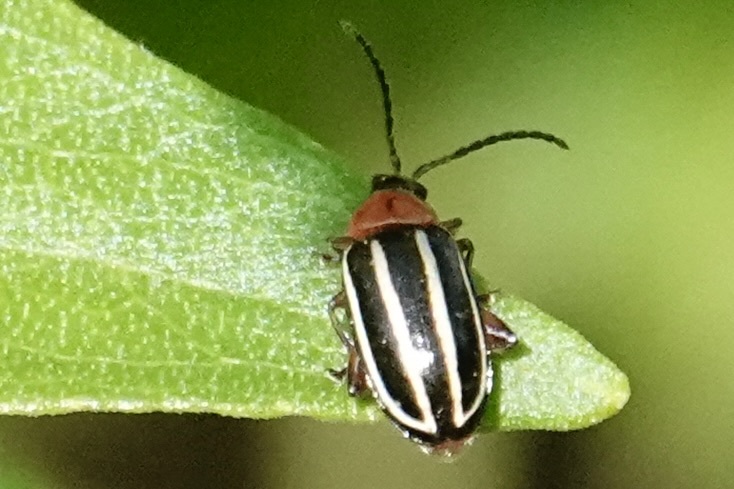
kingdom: Animalia
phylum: Arthropoda
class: Insecta
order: Coleoptera
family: Chrysomelidae
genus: Disonycha
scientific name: Disonycha glabrata
